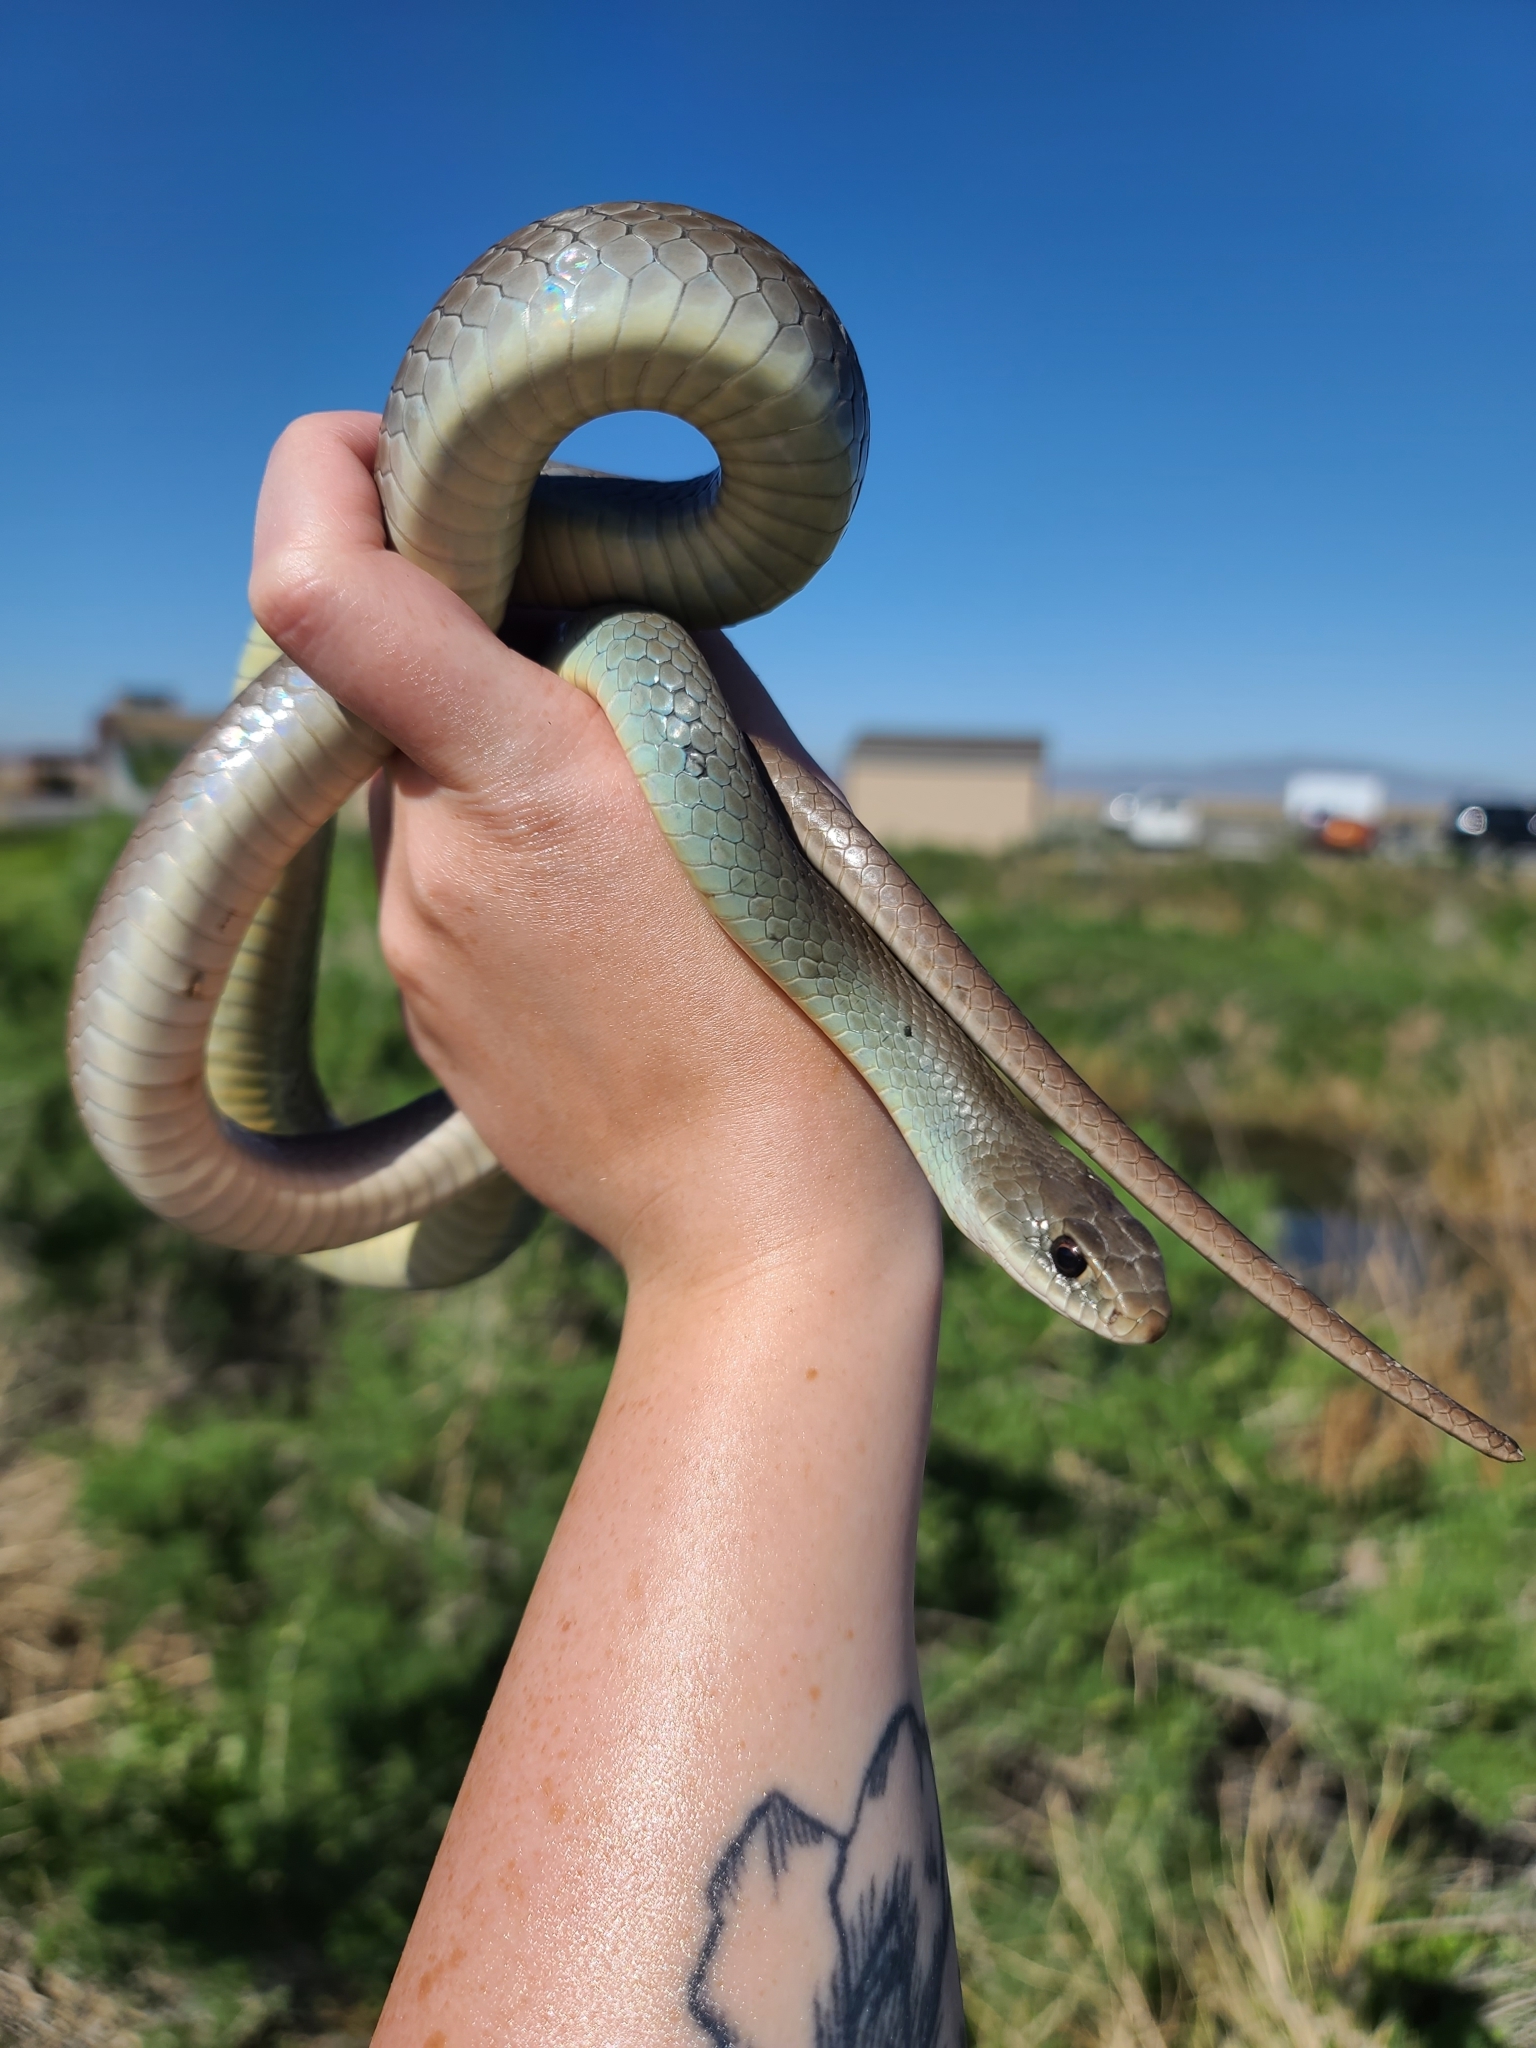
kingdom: Animalia
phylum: Chordata
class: Squamata
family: Colubridae
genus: Coluber
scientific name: Coluber constrictor
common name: Eastern racer
